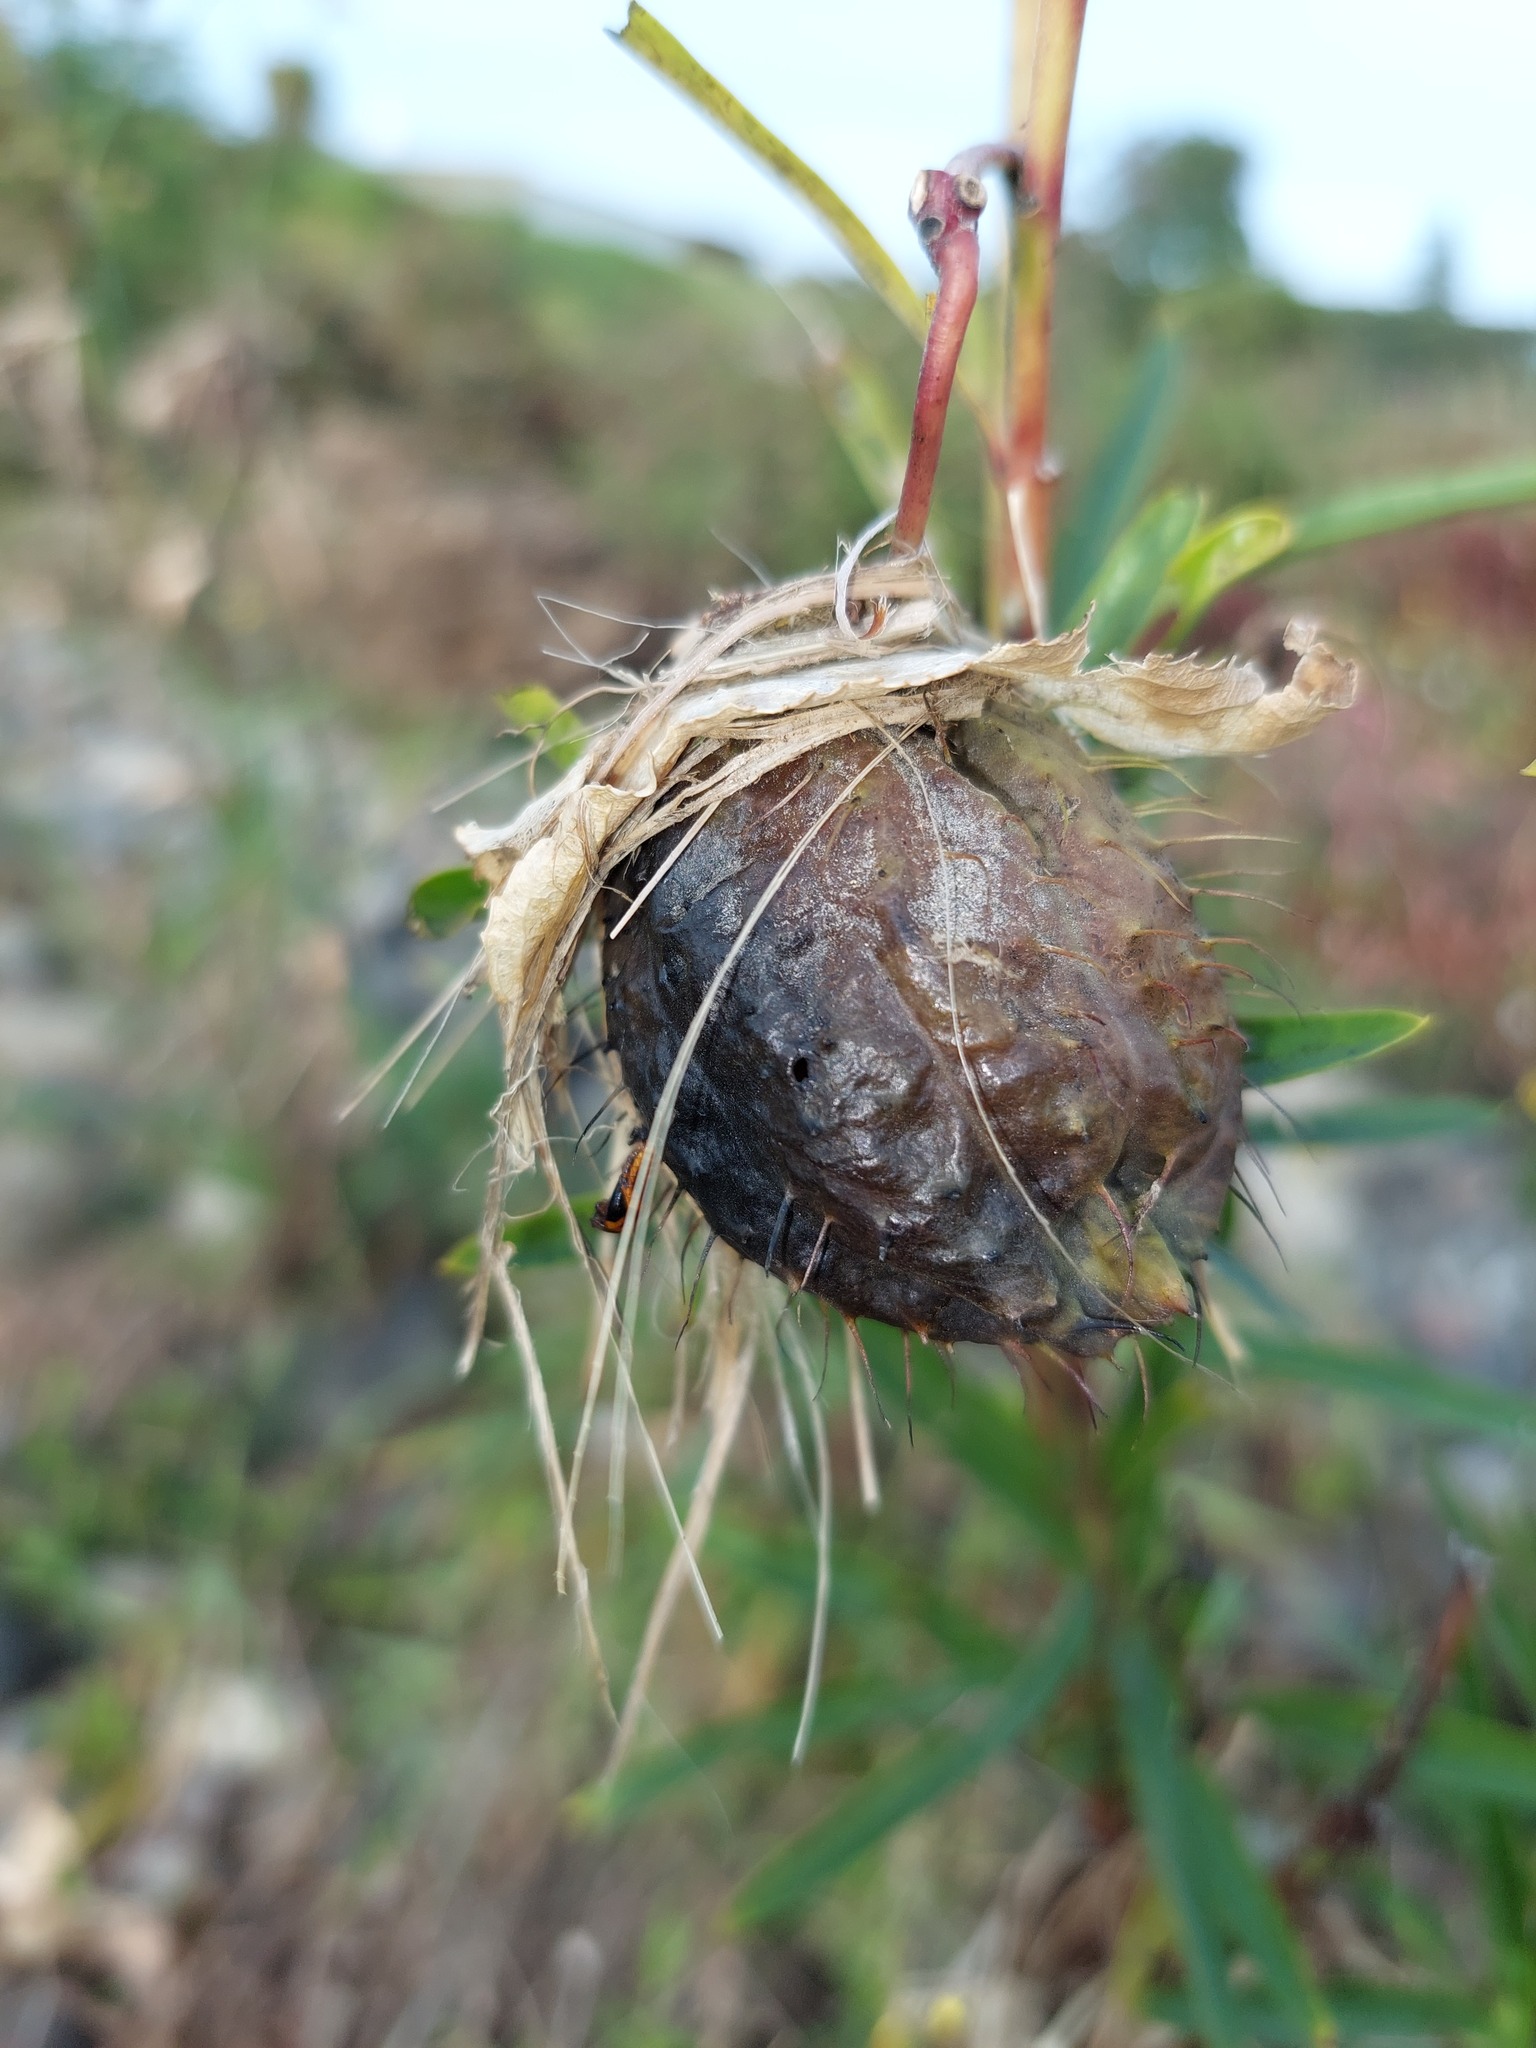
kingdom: Plantae
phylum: Tracheophyta
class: Magnoliopsida
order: Gentianales
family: Apocynaceae
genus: Gomphocarpus
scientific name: Gomphocarpus physocarpus
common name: Balloon cotton bush
